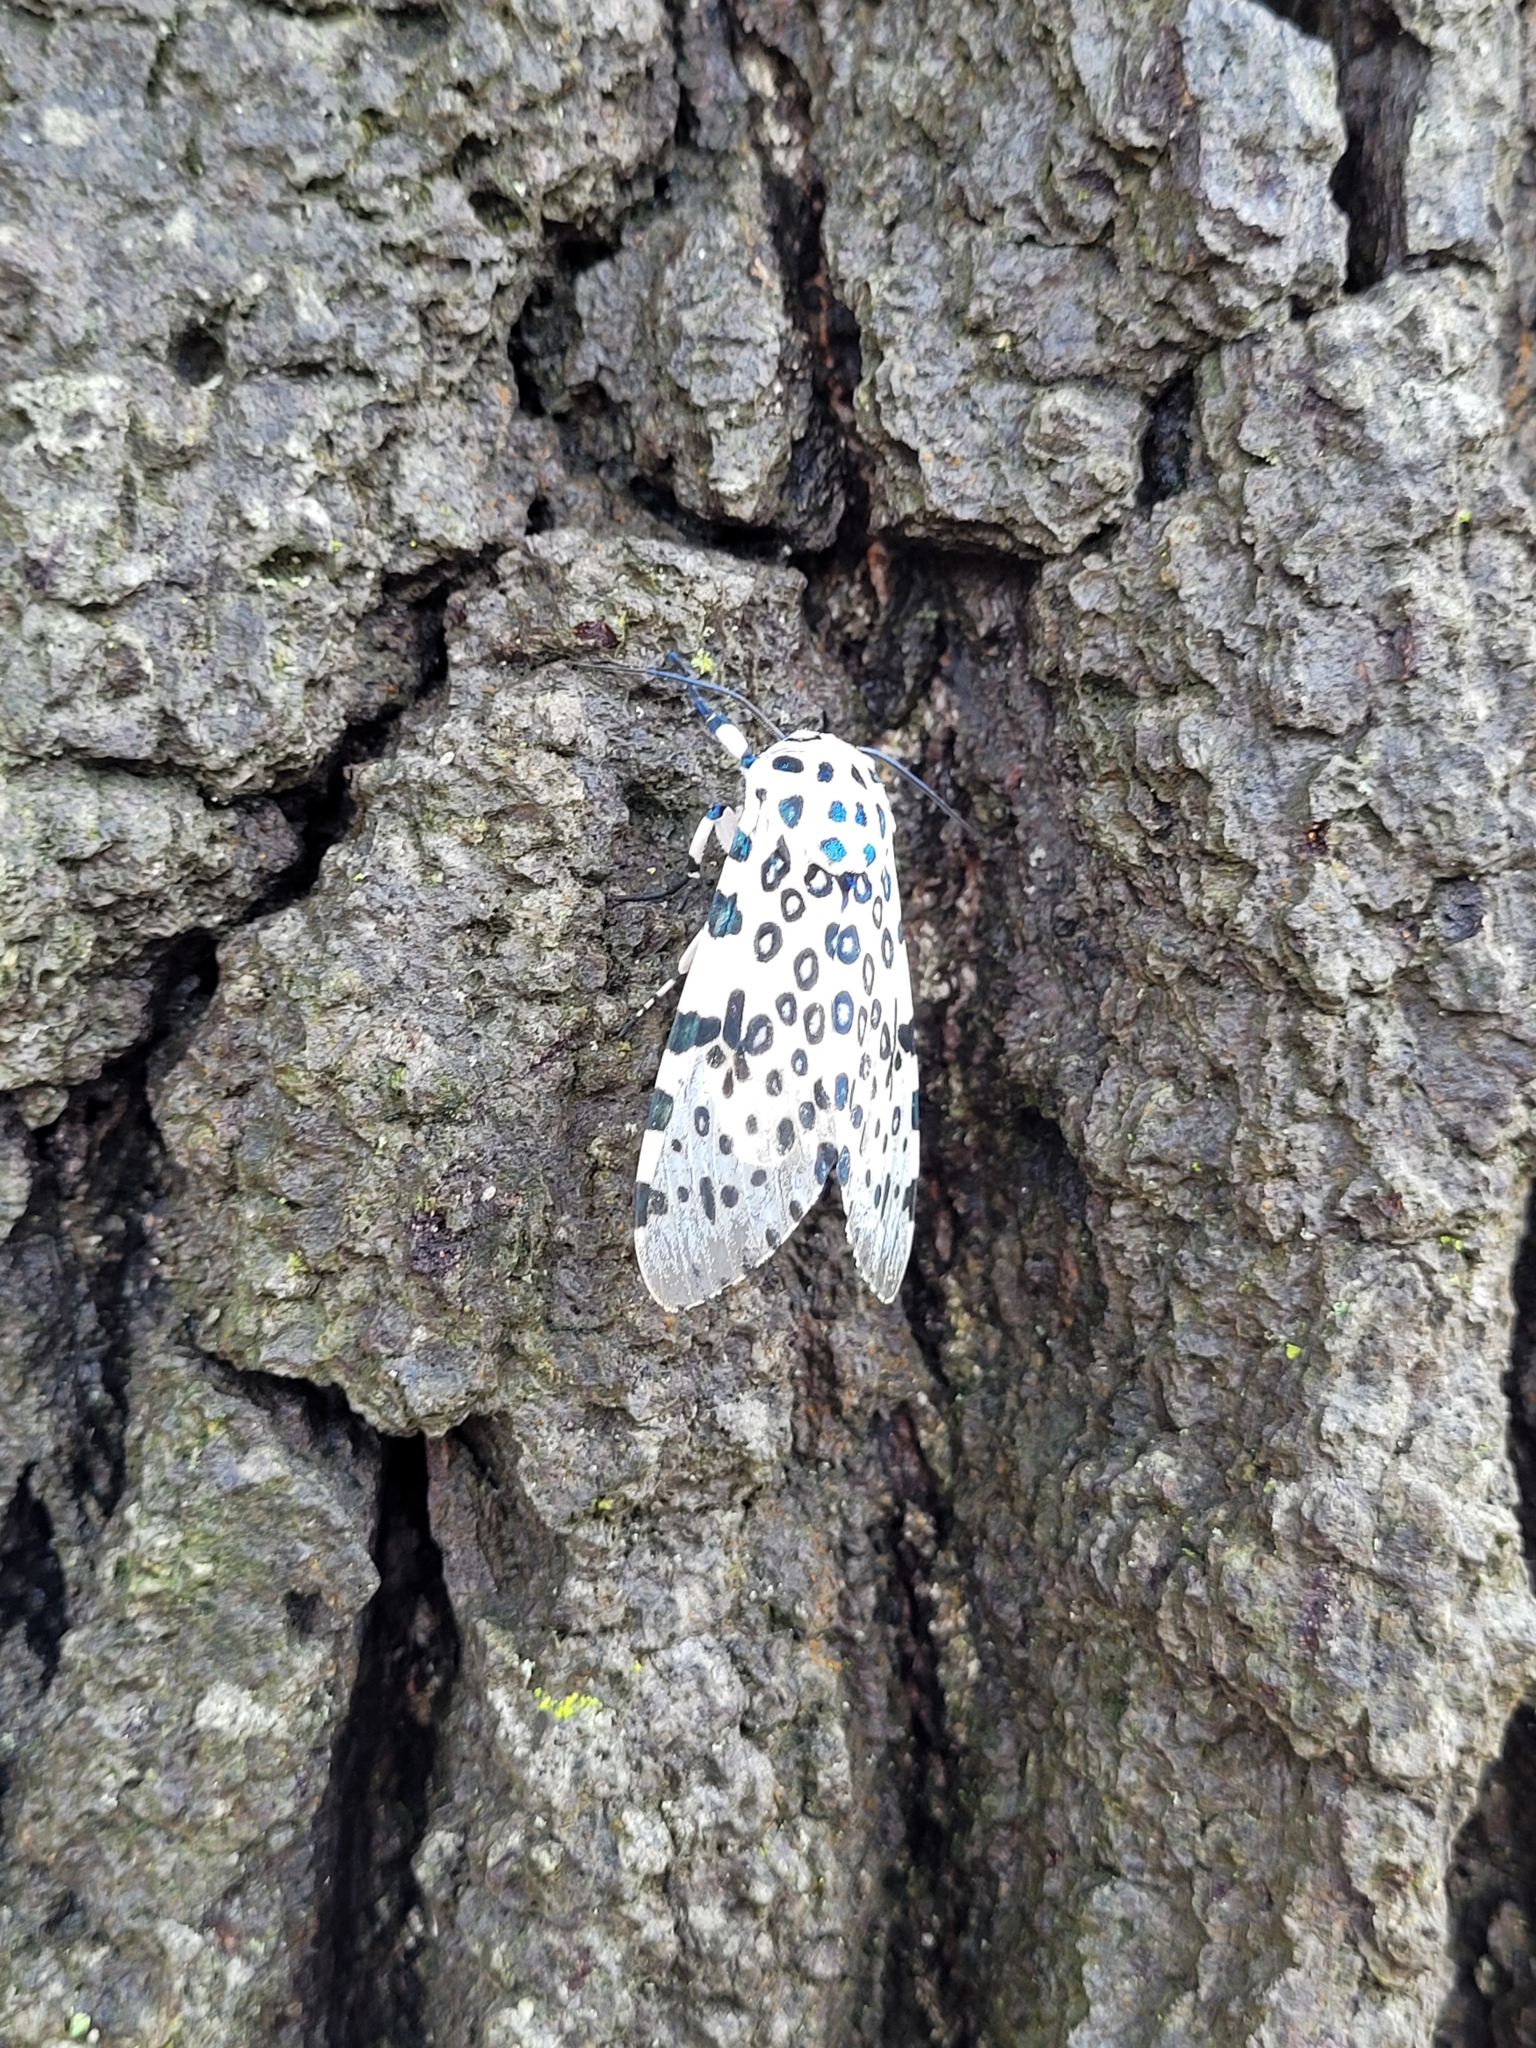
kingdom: Animalia
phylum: Arthropoda
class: Insecta
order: Lepidoptera
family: Erebidae
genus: Hypercompe
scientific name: Hypercompe scribonia
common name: Giant leopard moth
